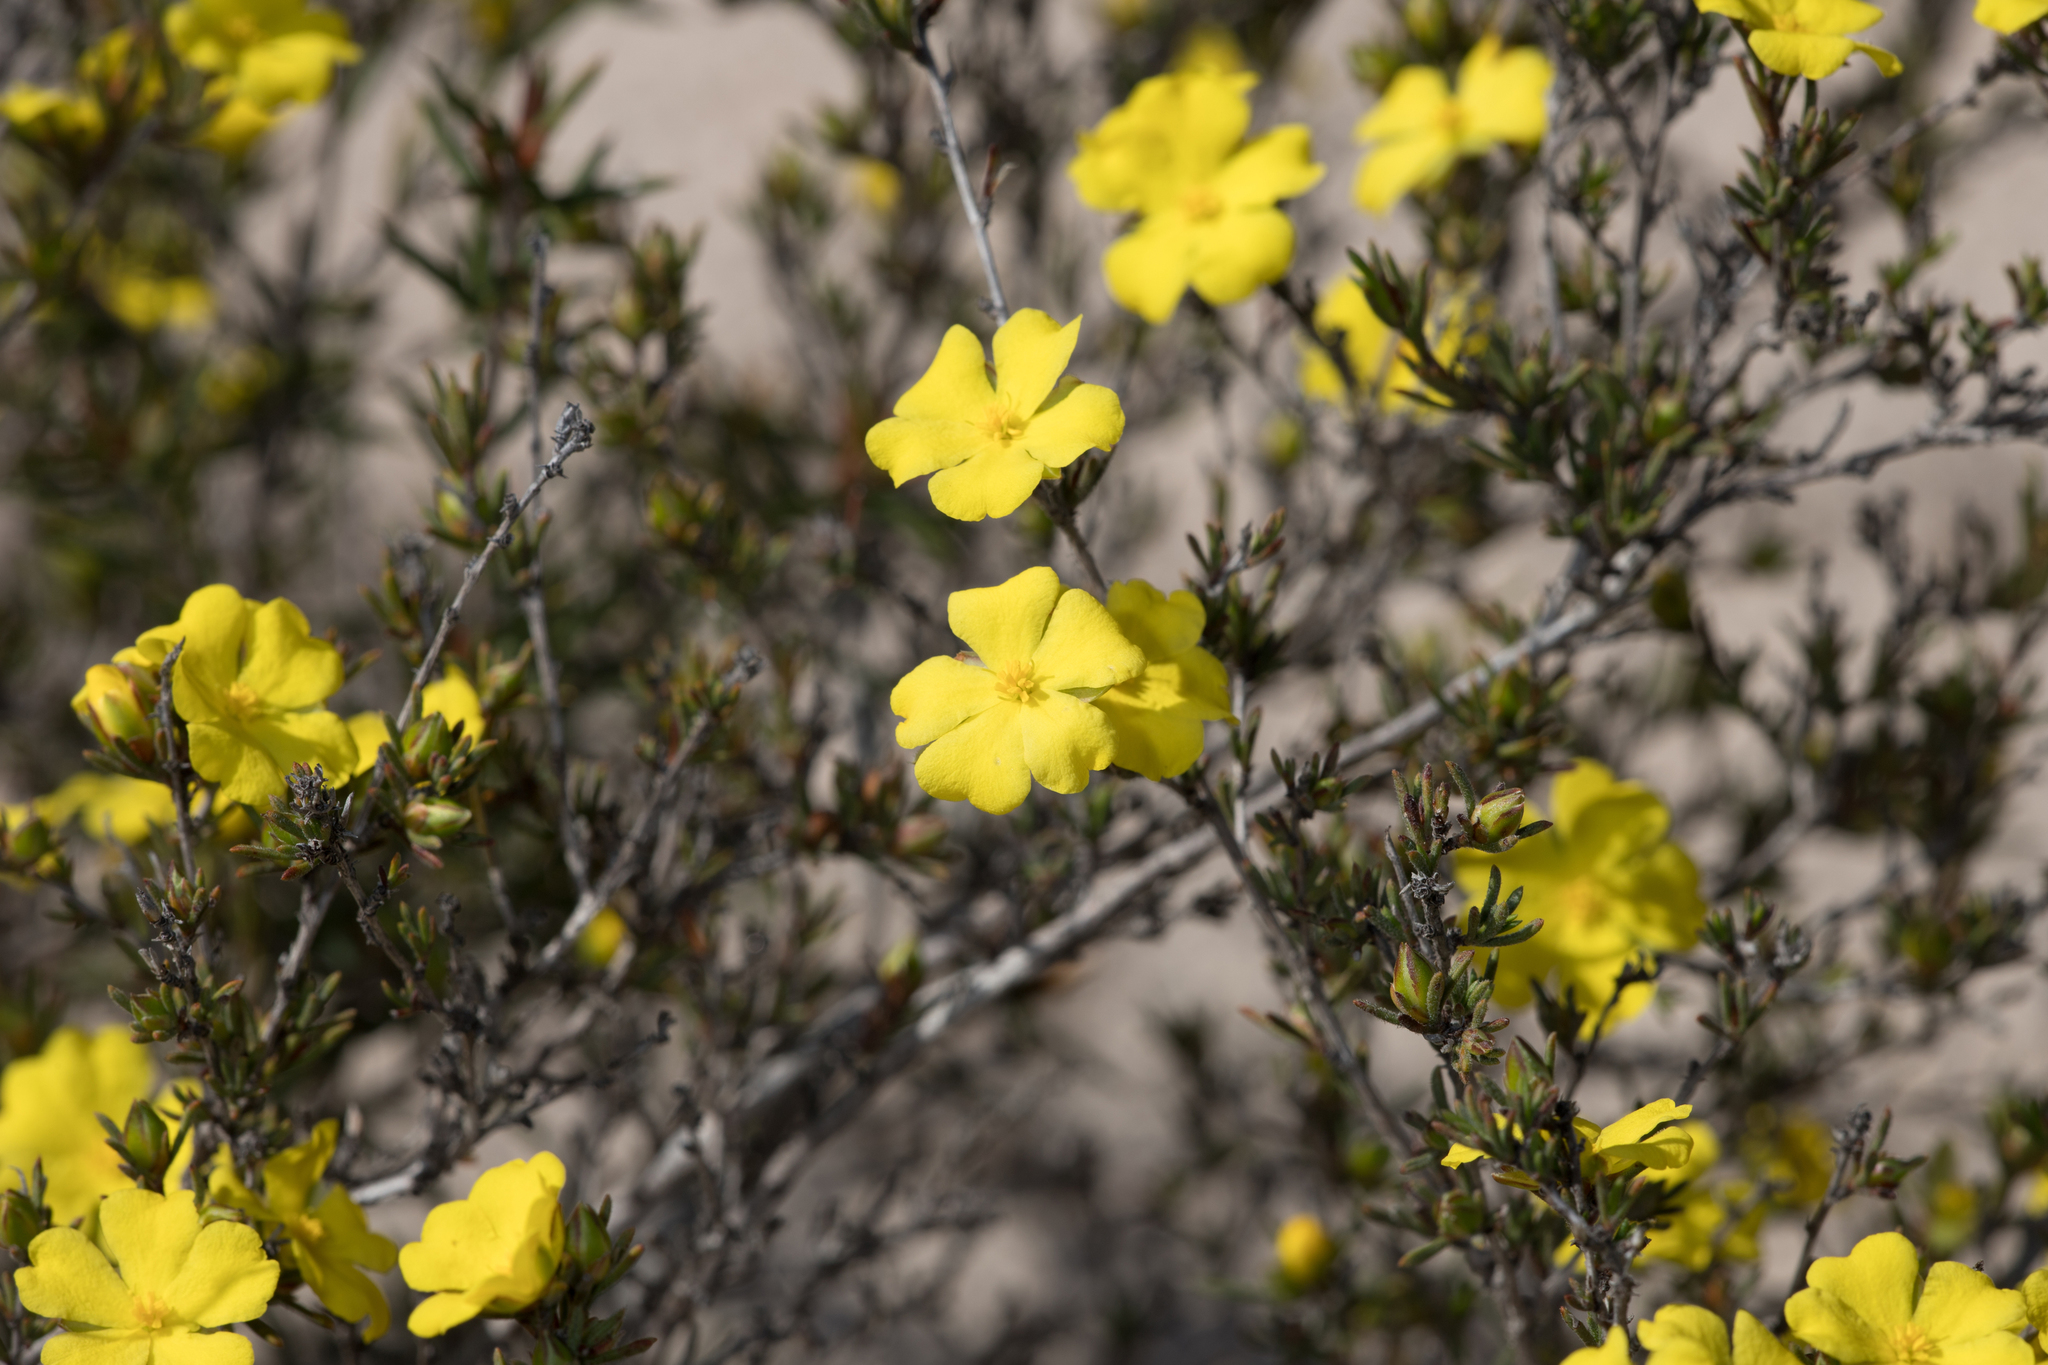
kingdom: Plantae
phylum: Tracheophyta
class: Magnoliopsida
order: Dilleniales
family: Dilleniaceae
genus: Hibbertia
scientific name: Hibbertia virgata
